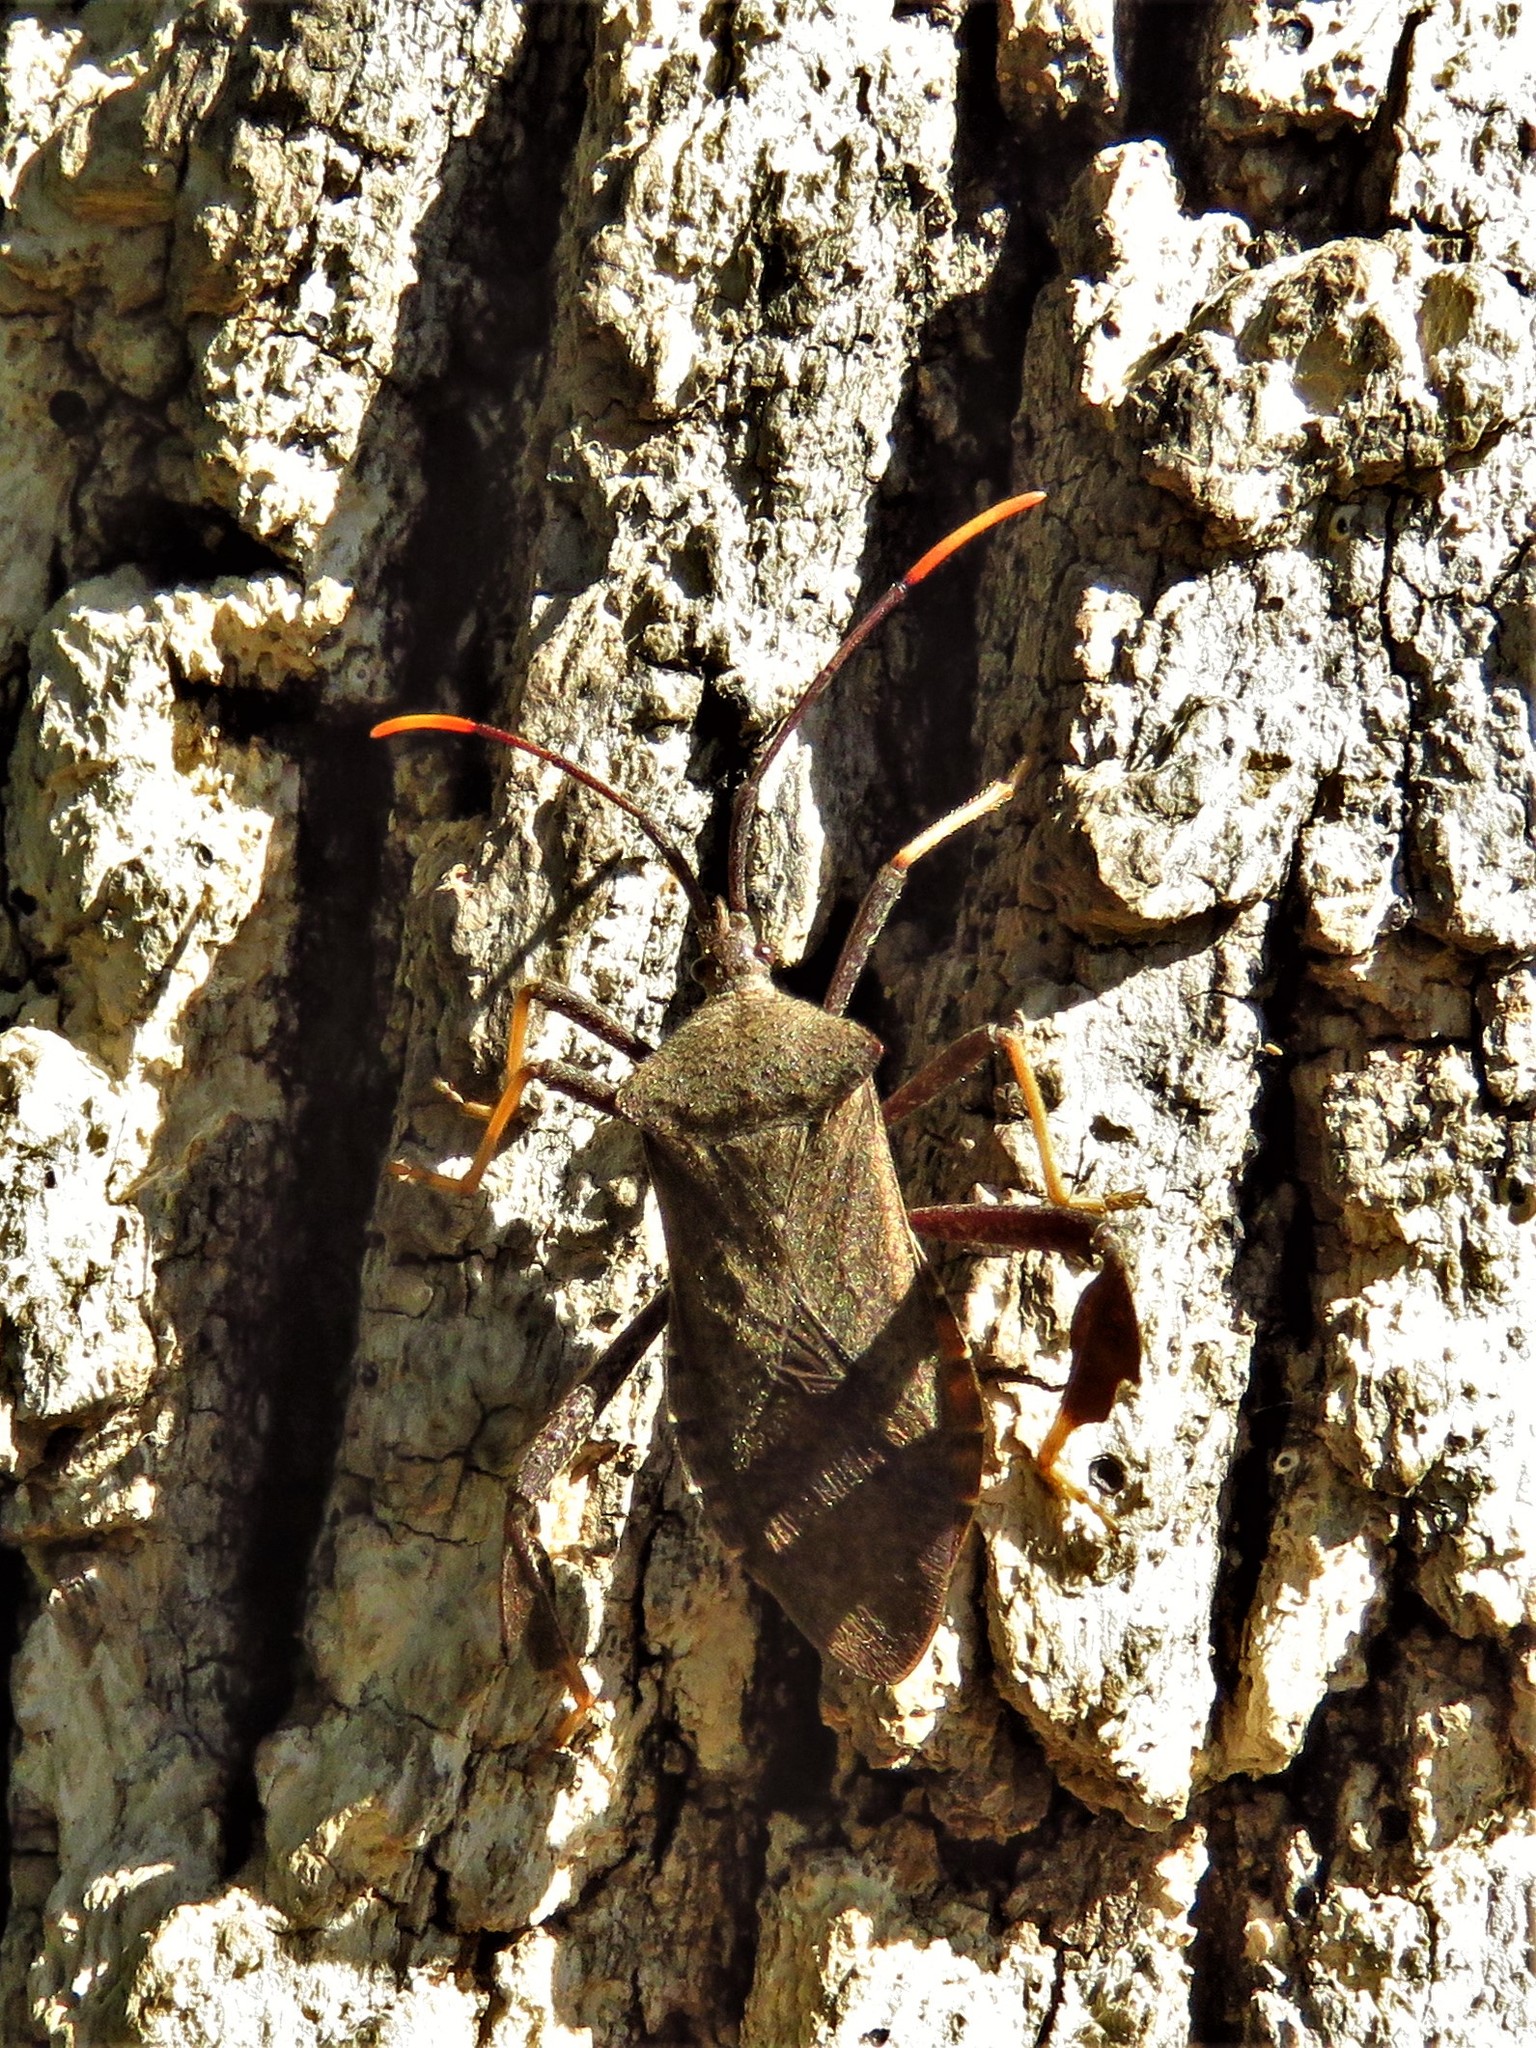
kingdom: Animalia
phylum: Arthropoda
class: Insecta
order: Hemiptera
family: Coreidae
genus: Acanthocephala
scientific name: Acanthocephala terminalis
